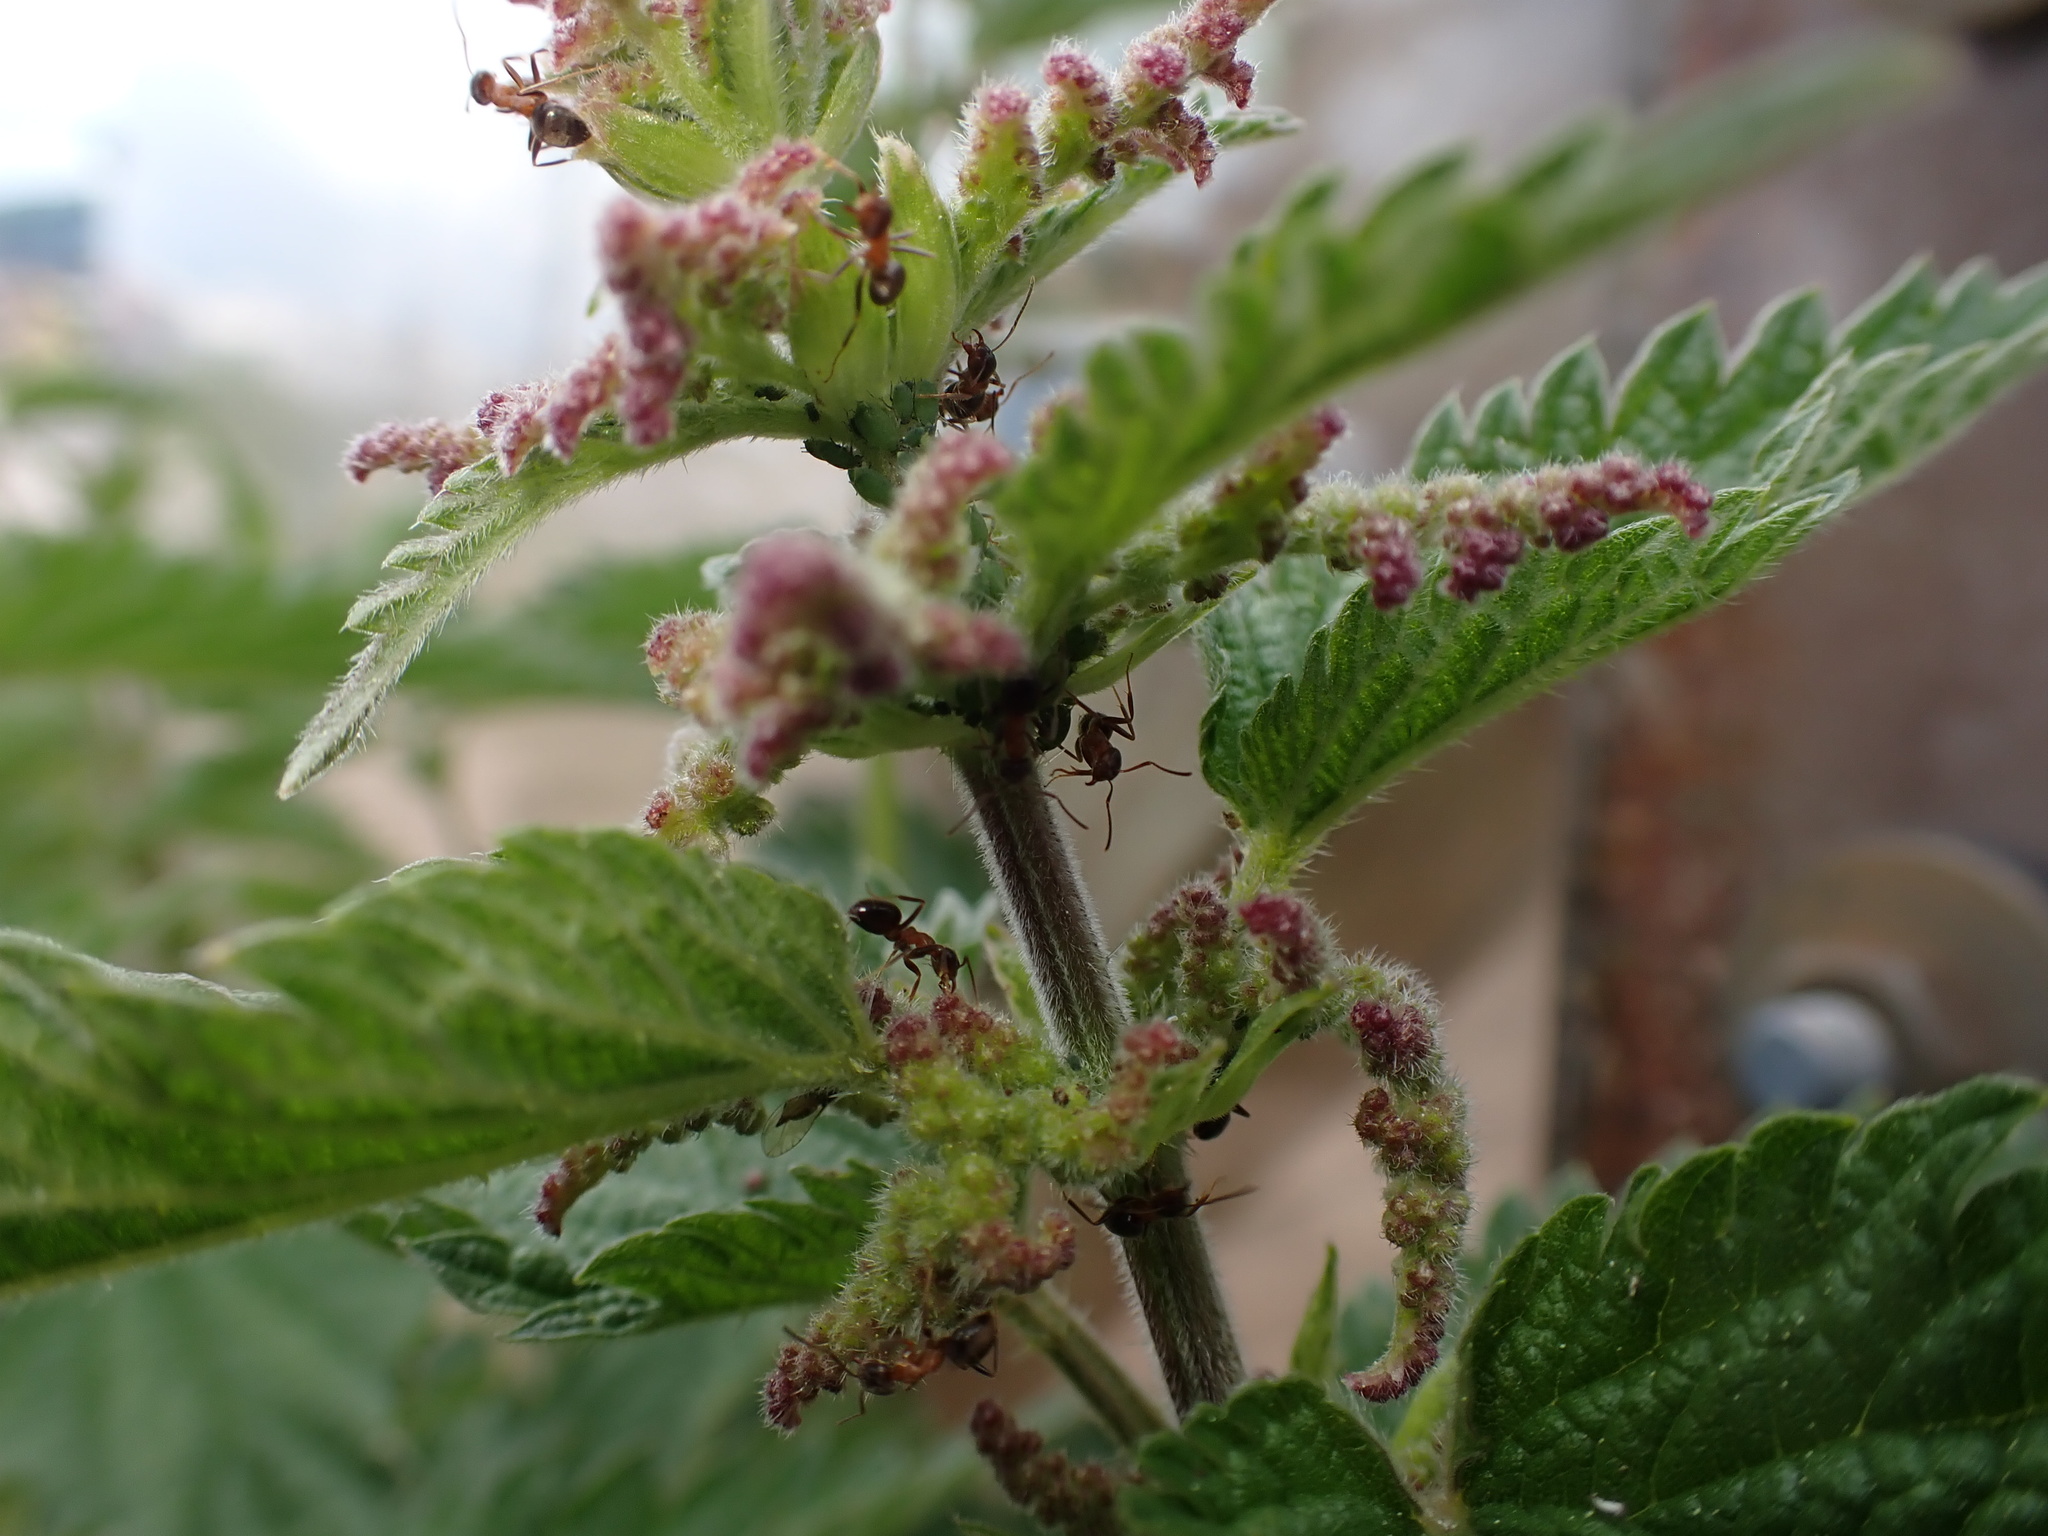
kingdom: Animalia
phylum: Arthropoda
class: Insecta
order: Hymenoptera
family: Formicidae
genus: Lasius
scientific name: Lasius emarginatus
